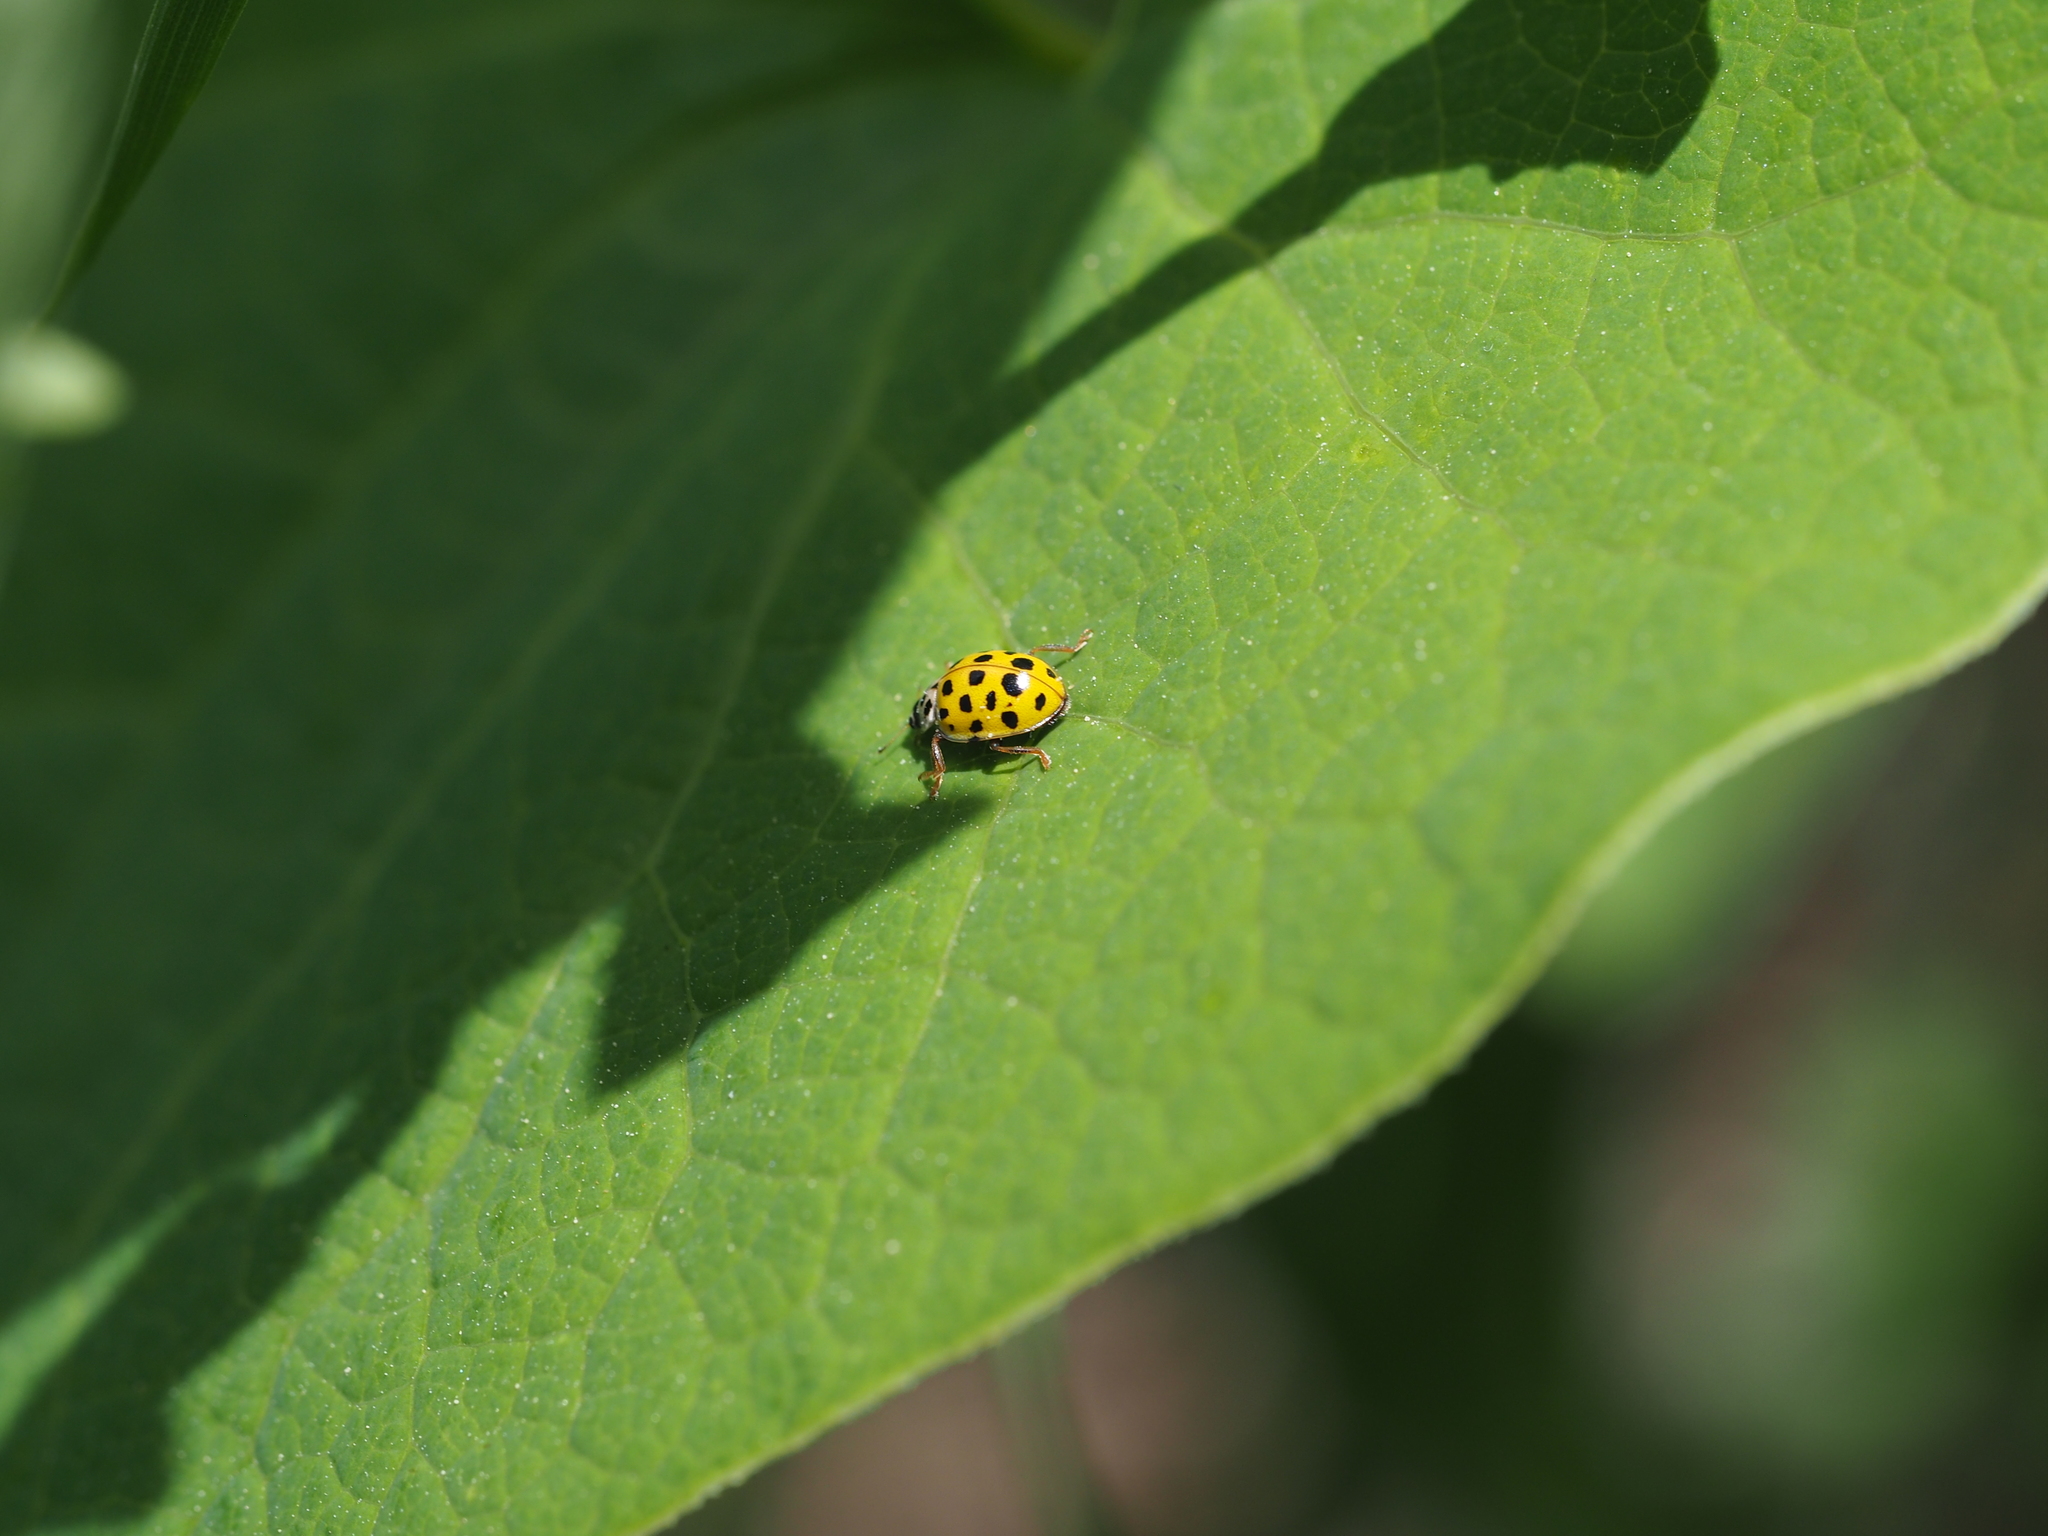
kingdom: Animalia
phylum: Arthropoda
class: Insecta
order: Coleoptera
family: Coccinellidae
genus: Psyllobora
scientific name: Psyllobora vigintiduopunctata
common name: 22-spot ladybird
